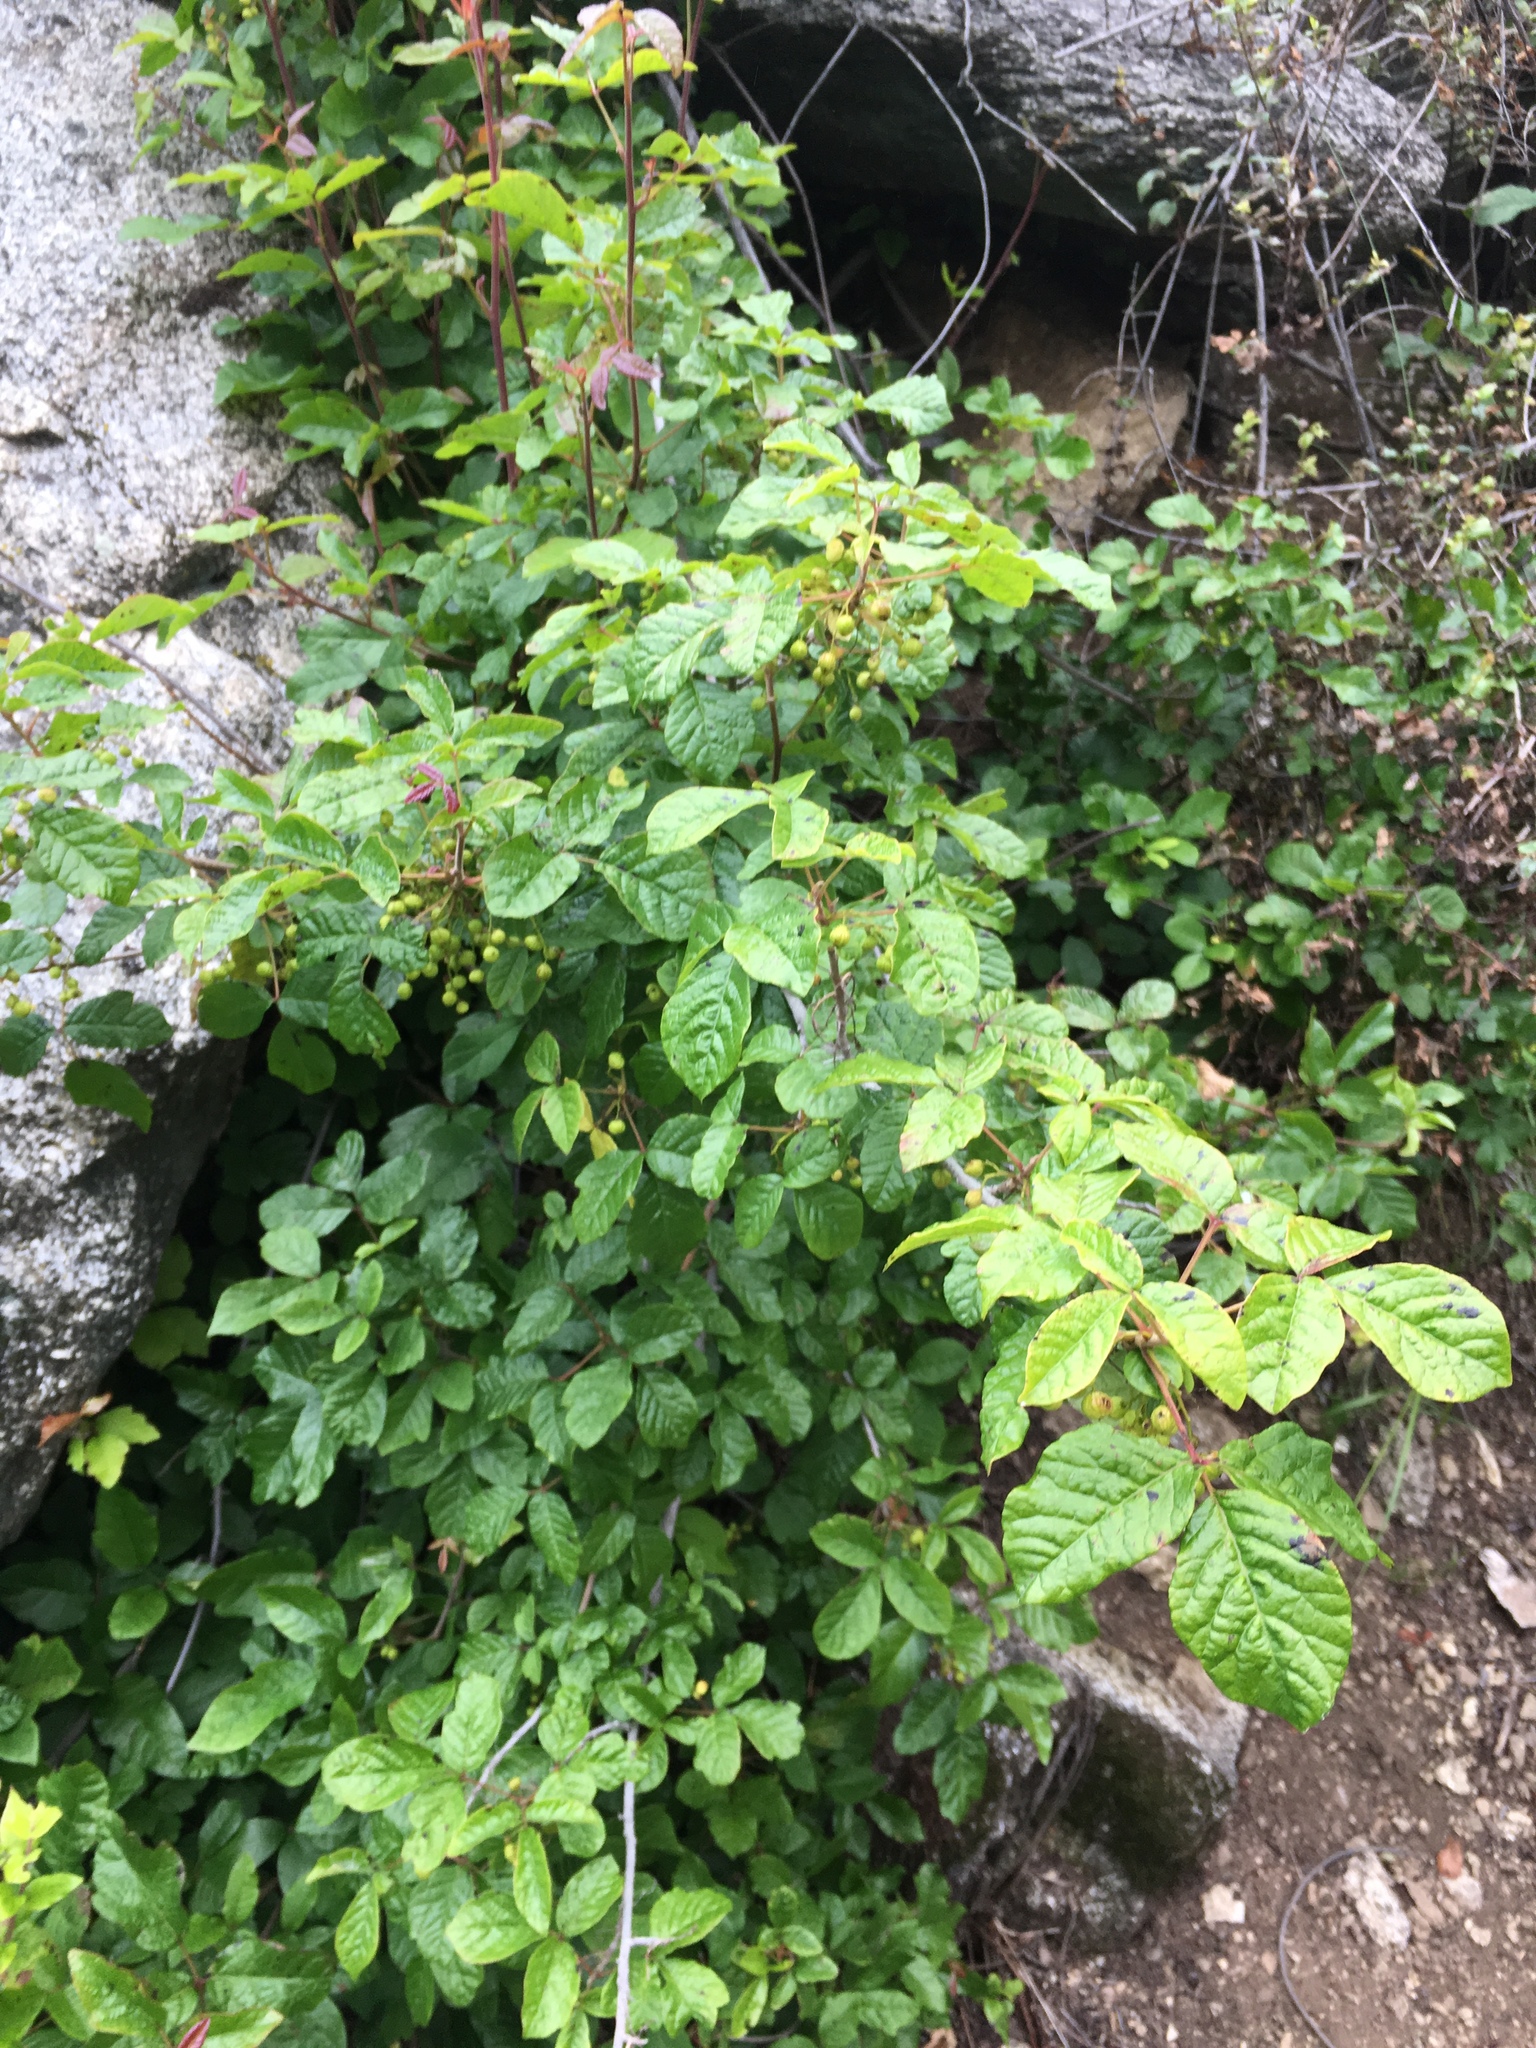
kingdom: Plantae
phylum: Tracheophyta
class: Magnoliopsida
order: Sapindales
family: Anacardiaceae
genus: Toxicodendron
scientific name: Toxicodendron diversilobum
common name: Pacific poison-oak
